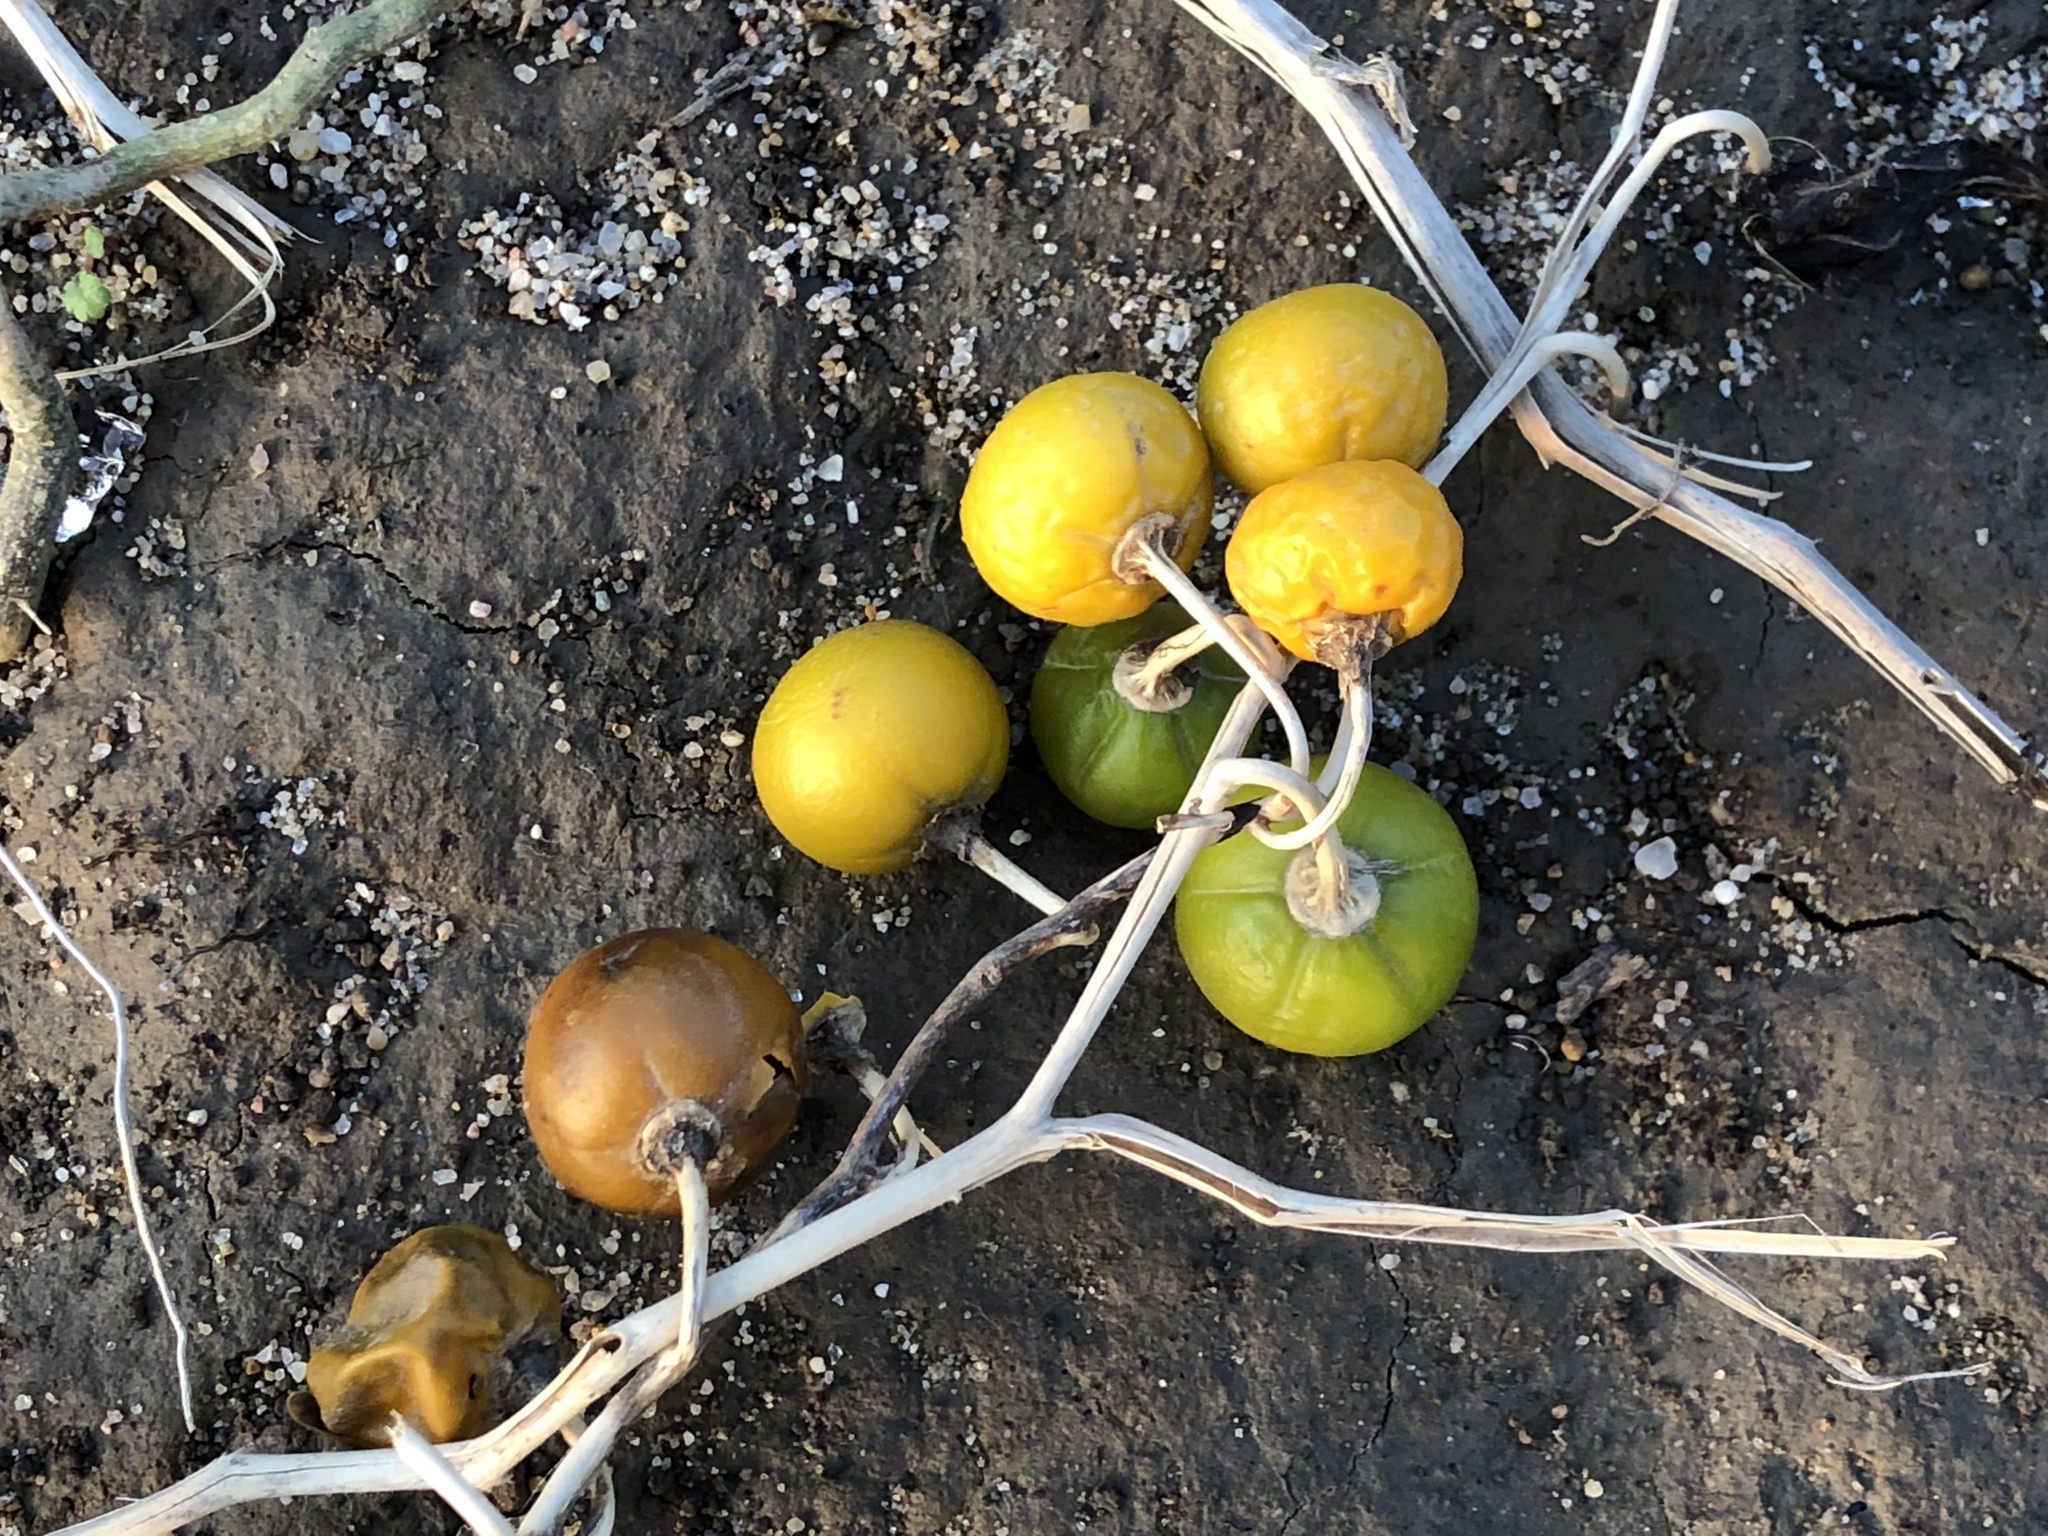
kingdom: Plantae
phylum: Tracheophyta
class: Magnoliopsida
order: Solanales
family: Solanaceae
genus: Solanum
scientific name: Solanum carolinense
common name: Horse-nettle
